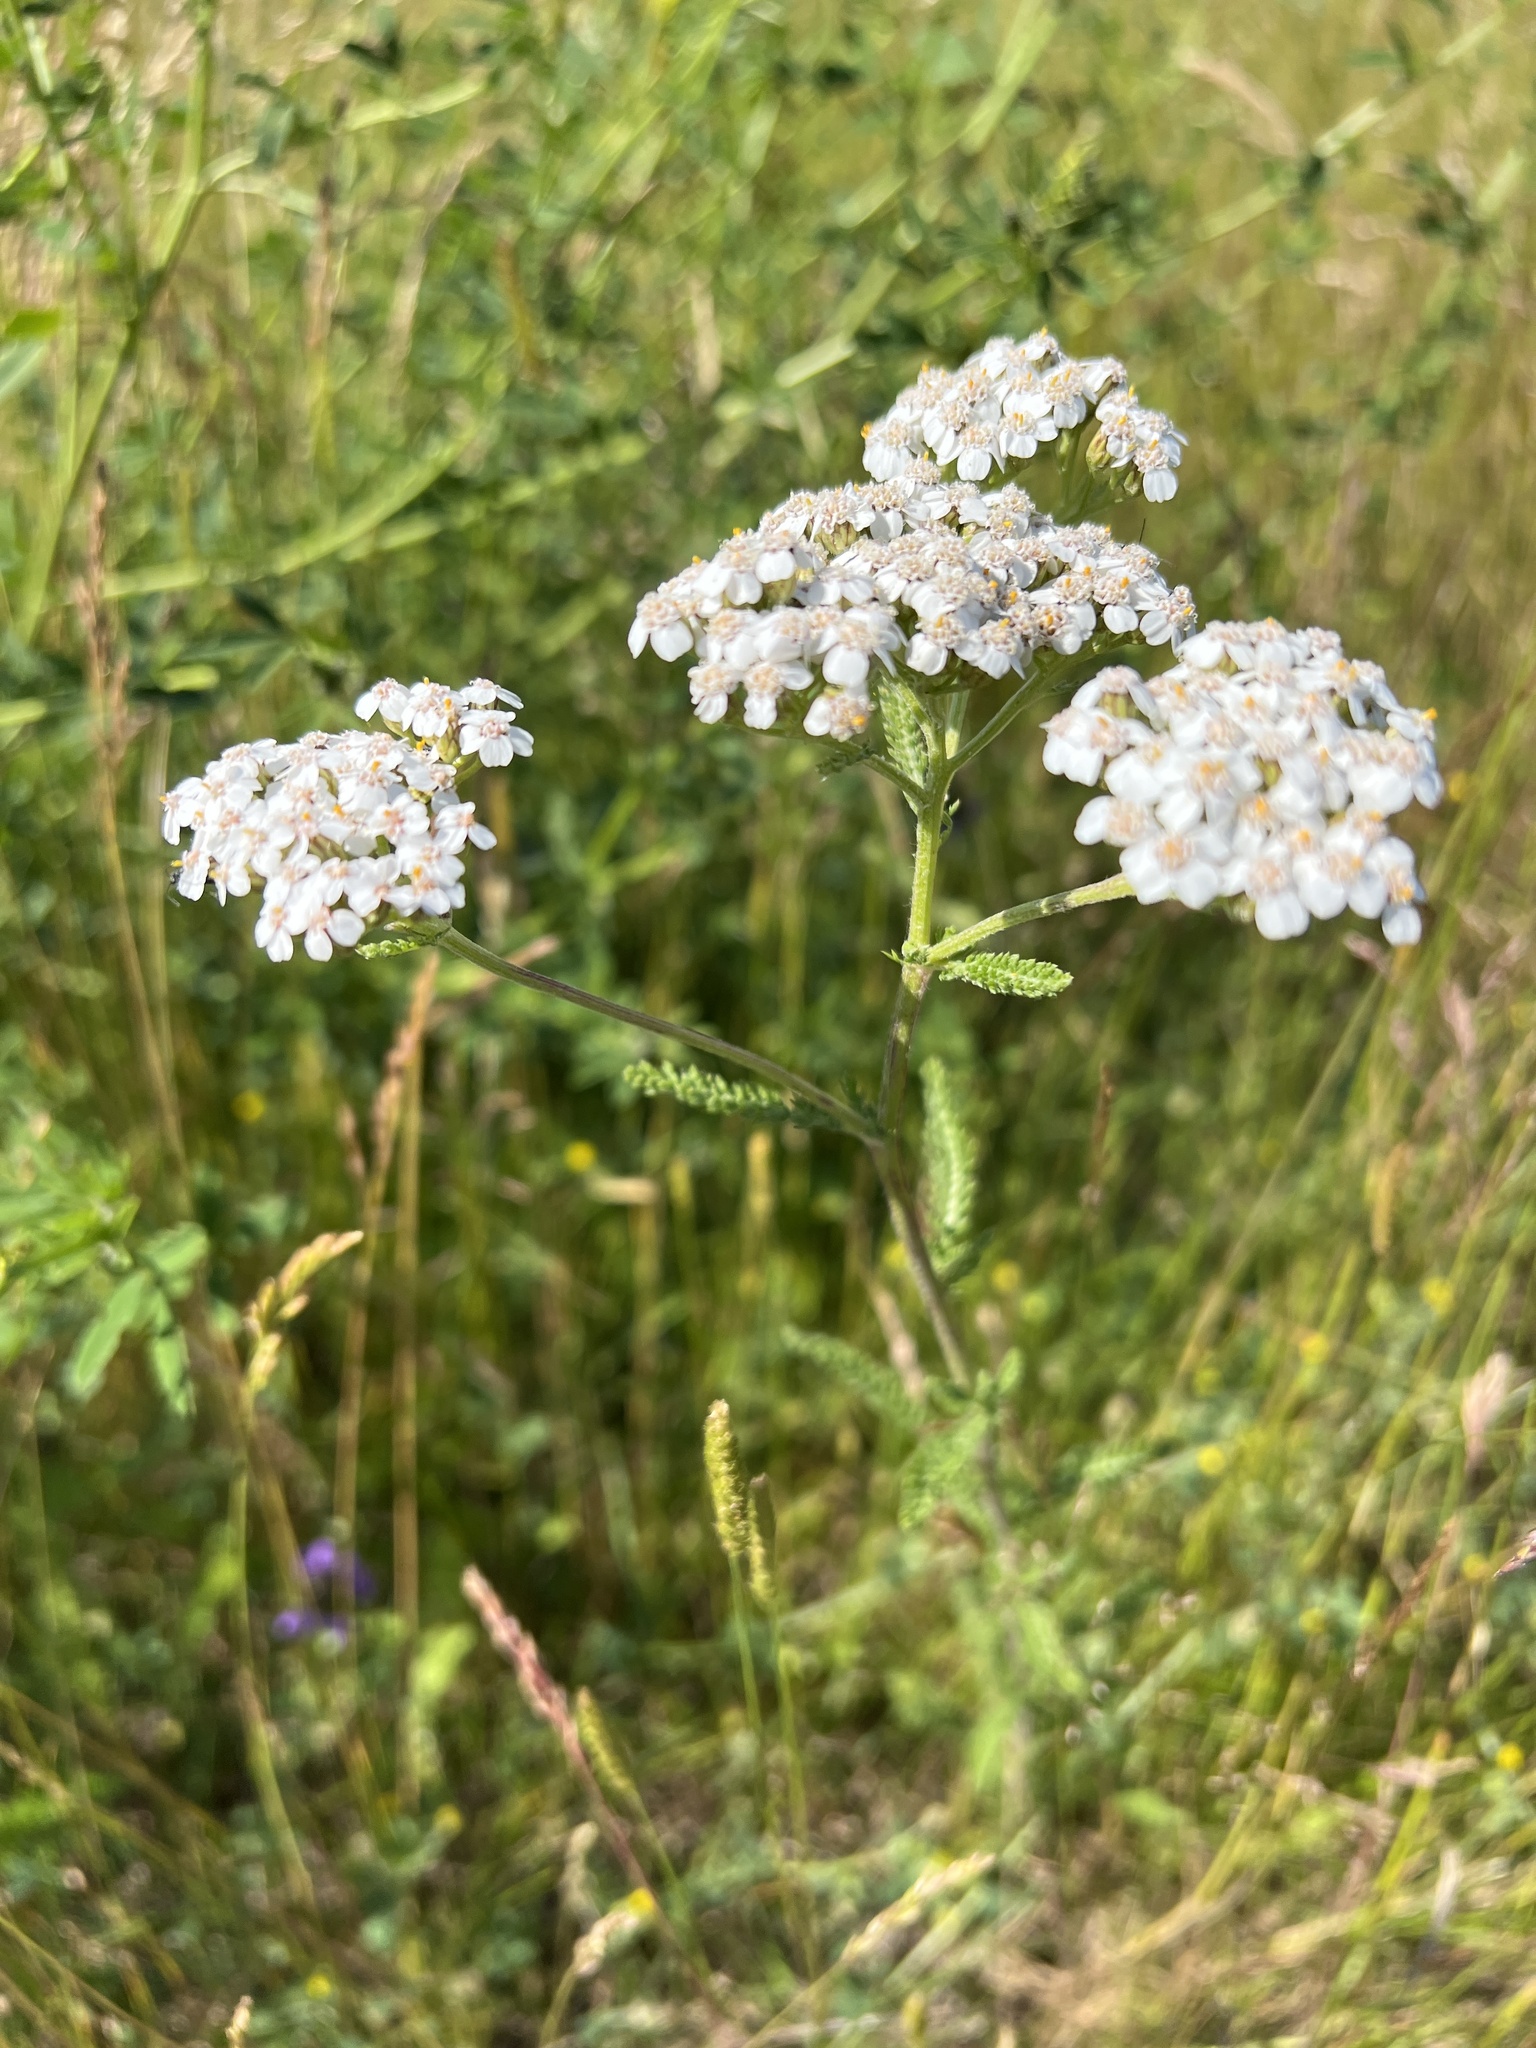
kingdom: Plantae
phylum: Tracheophyta
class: Magnoliopsida
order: Asterales
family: Asteraceae
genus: Achillea
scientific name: Achillea millefolium
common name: Yarrow
